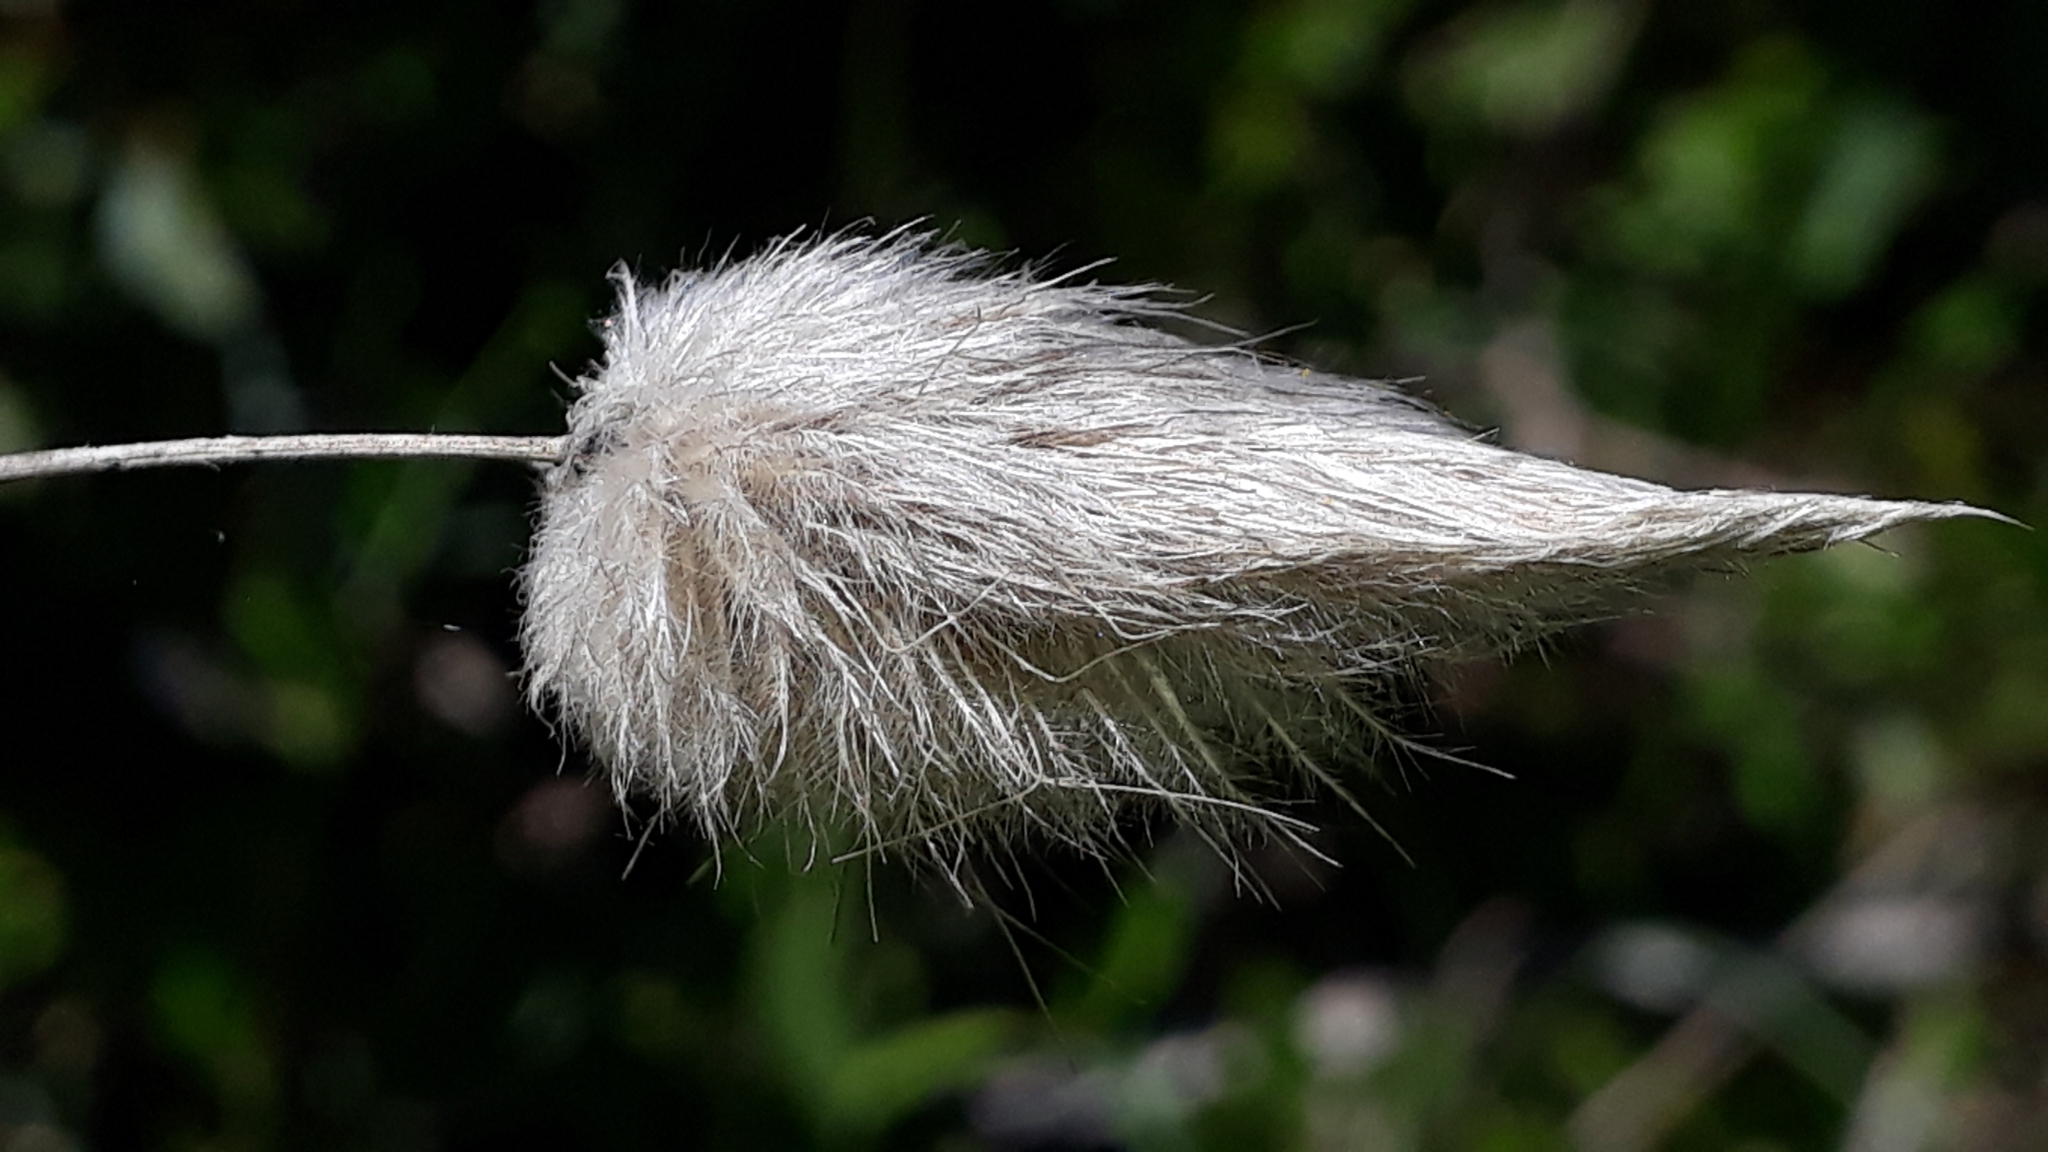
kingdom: Plantae
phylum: Tracheophyta
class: Liliopsida
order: Poales
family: Poaceae
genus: Lagurus
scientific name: Lagurus ovatus
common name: Hare's-tail
